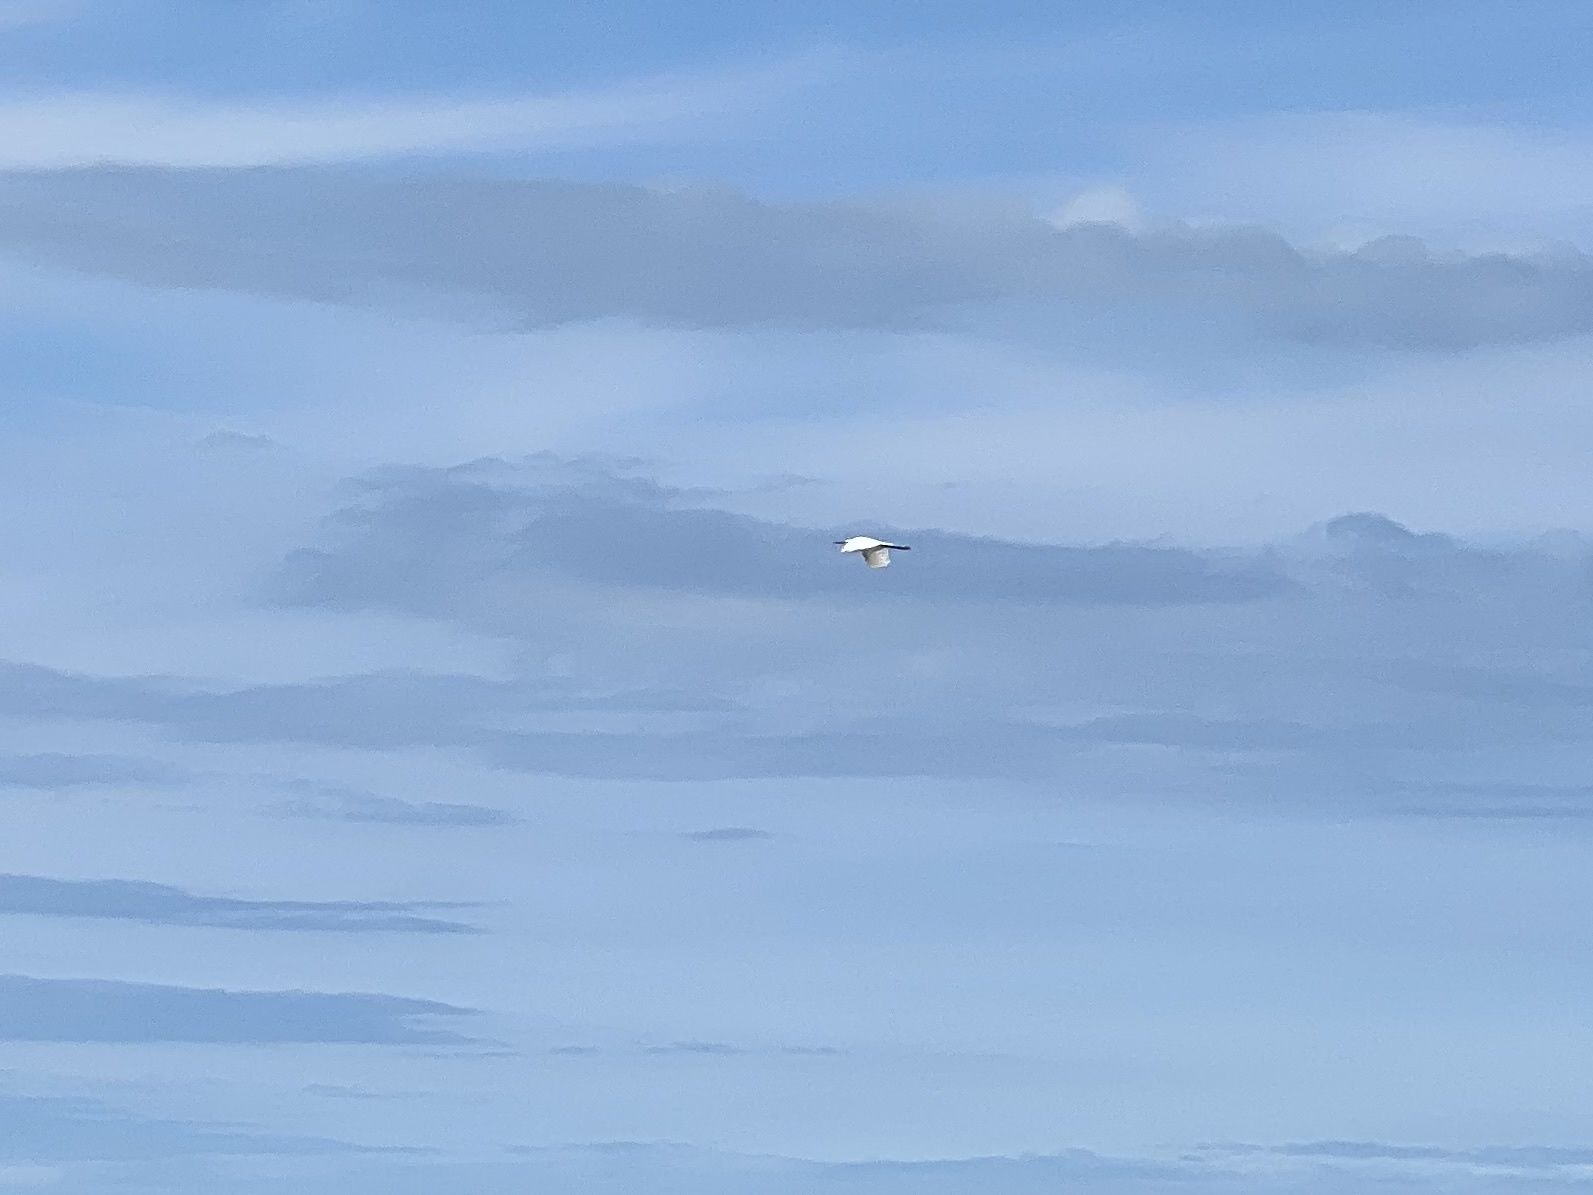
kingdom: Animalia
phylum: Chordata
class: Aves
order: Pelecaniformes
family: Ardeidae
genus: Egretta
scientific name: Egretta garzetta
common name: Little egret
